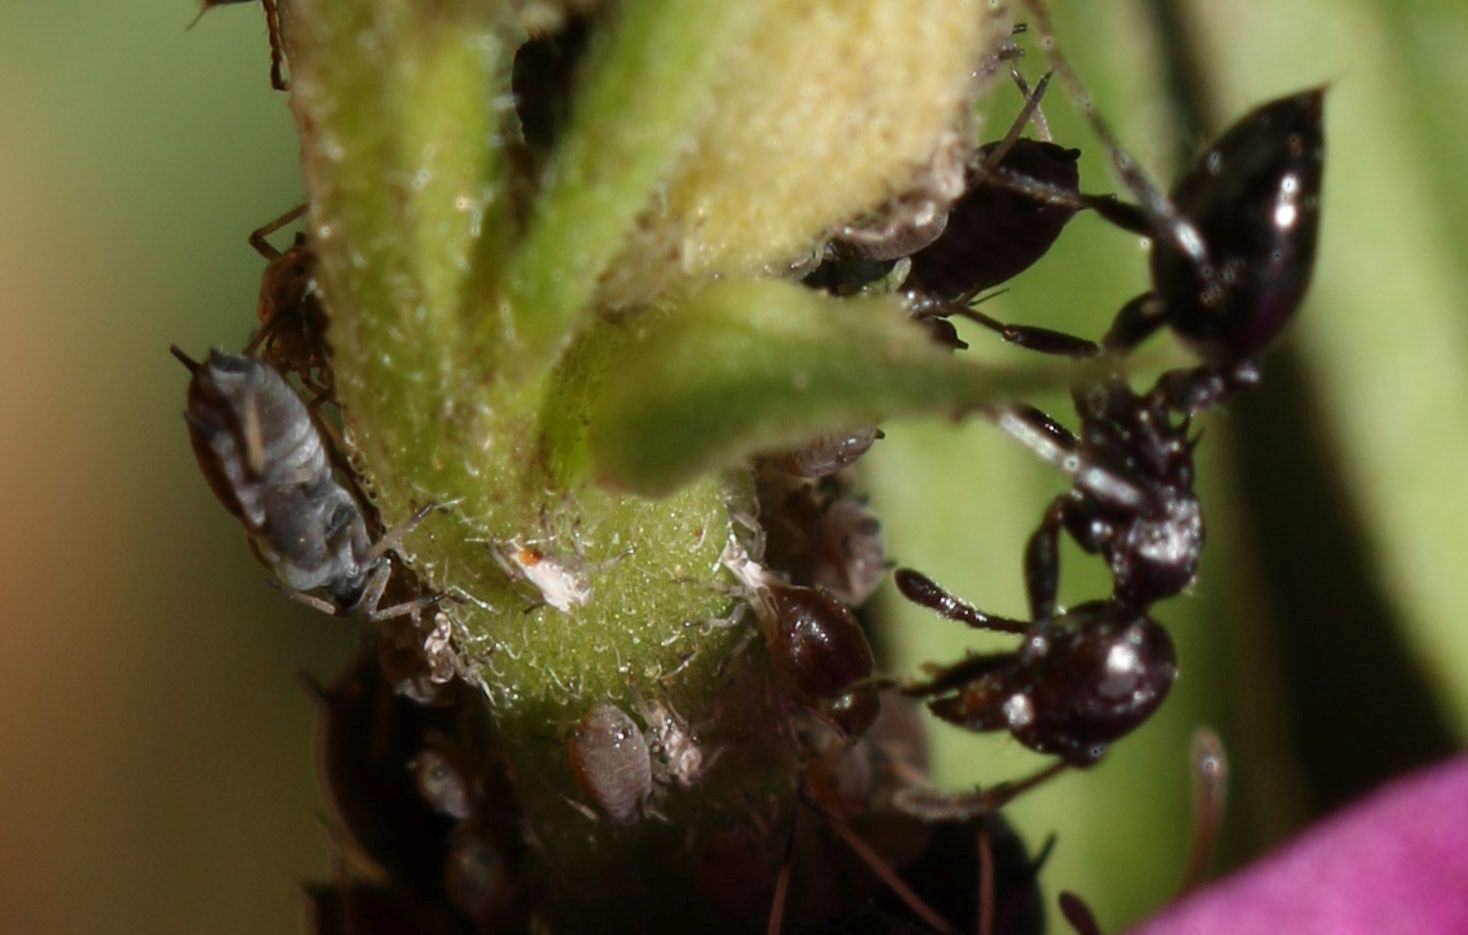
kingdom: Animalia
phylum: Arthropoda
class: Insecta
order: Hymenoptera
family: Formicidae
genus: Crematogaster
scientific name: Crematogaster peringueyi
